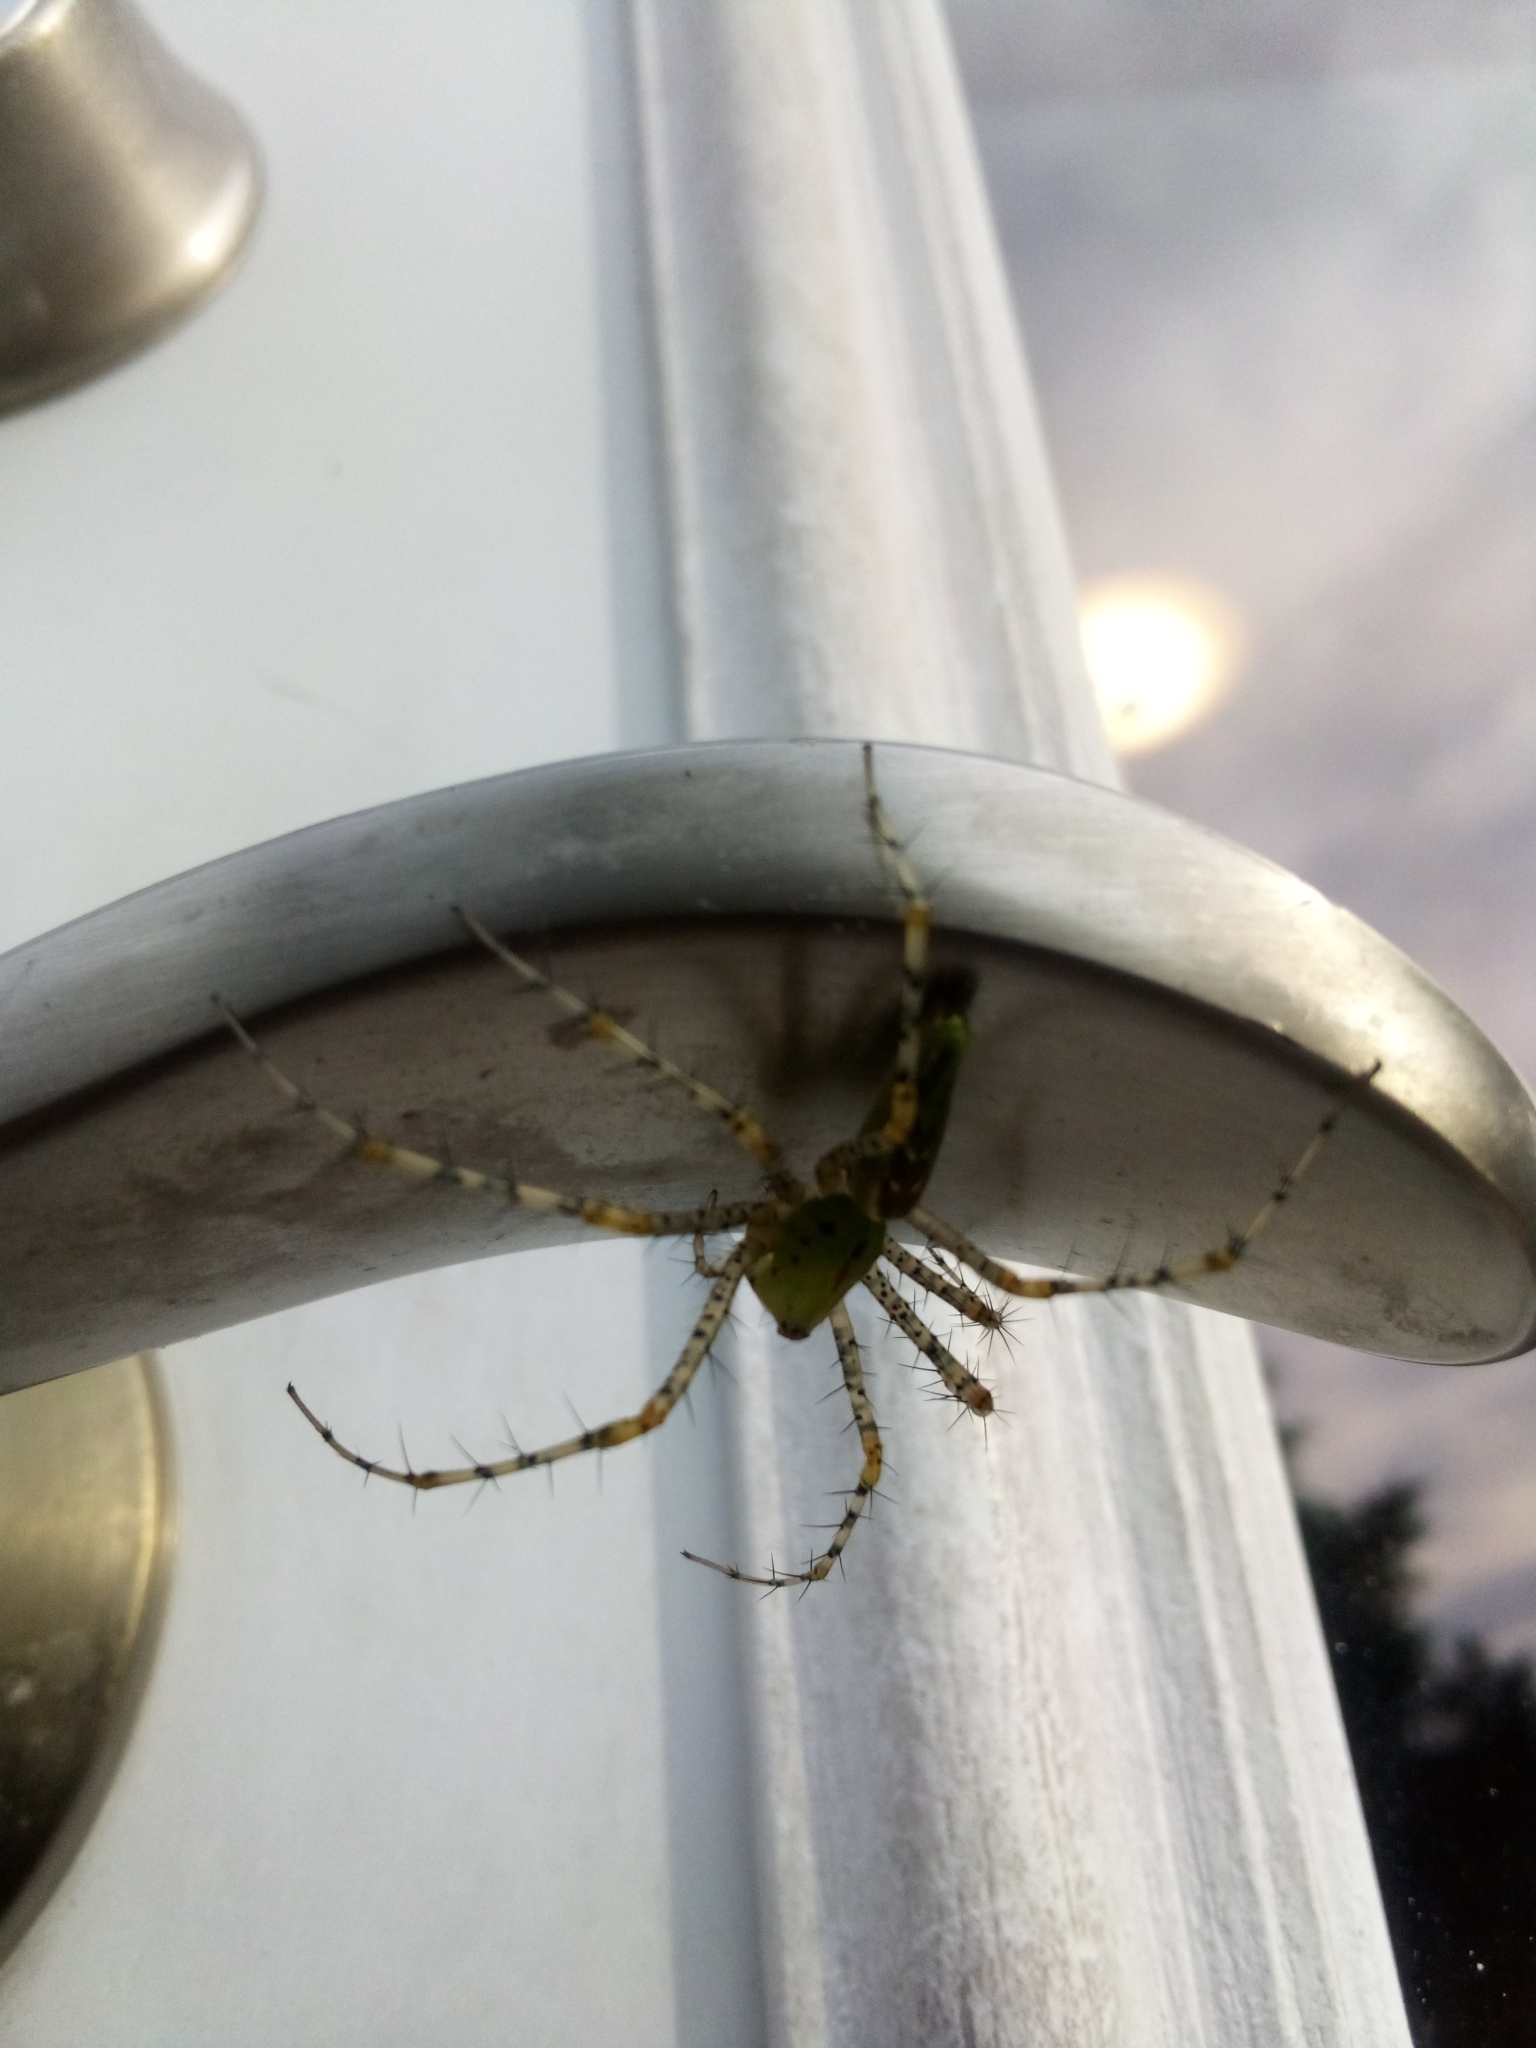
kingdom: Animalia
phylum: Arthropoda
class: Arachnida
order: Araneae
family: Oxyopidae
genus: Peucetia
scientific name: Peucetia viridans
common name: Lynx spiders
